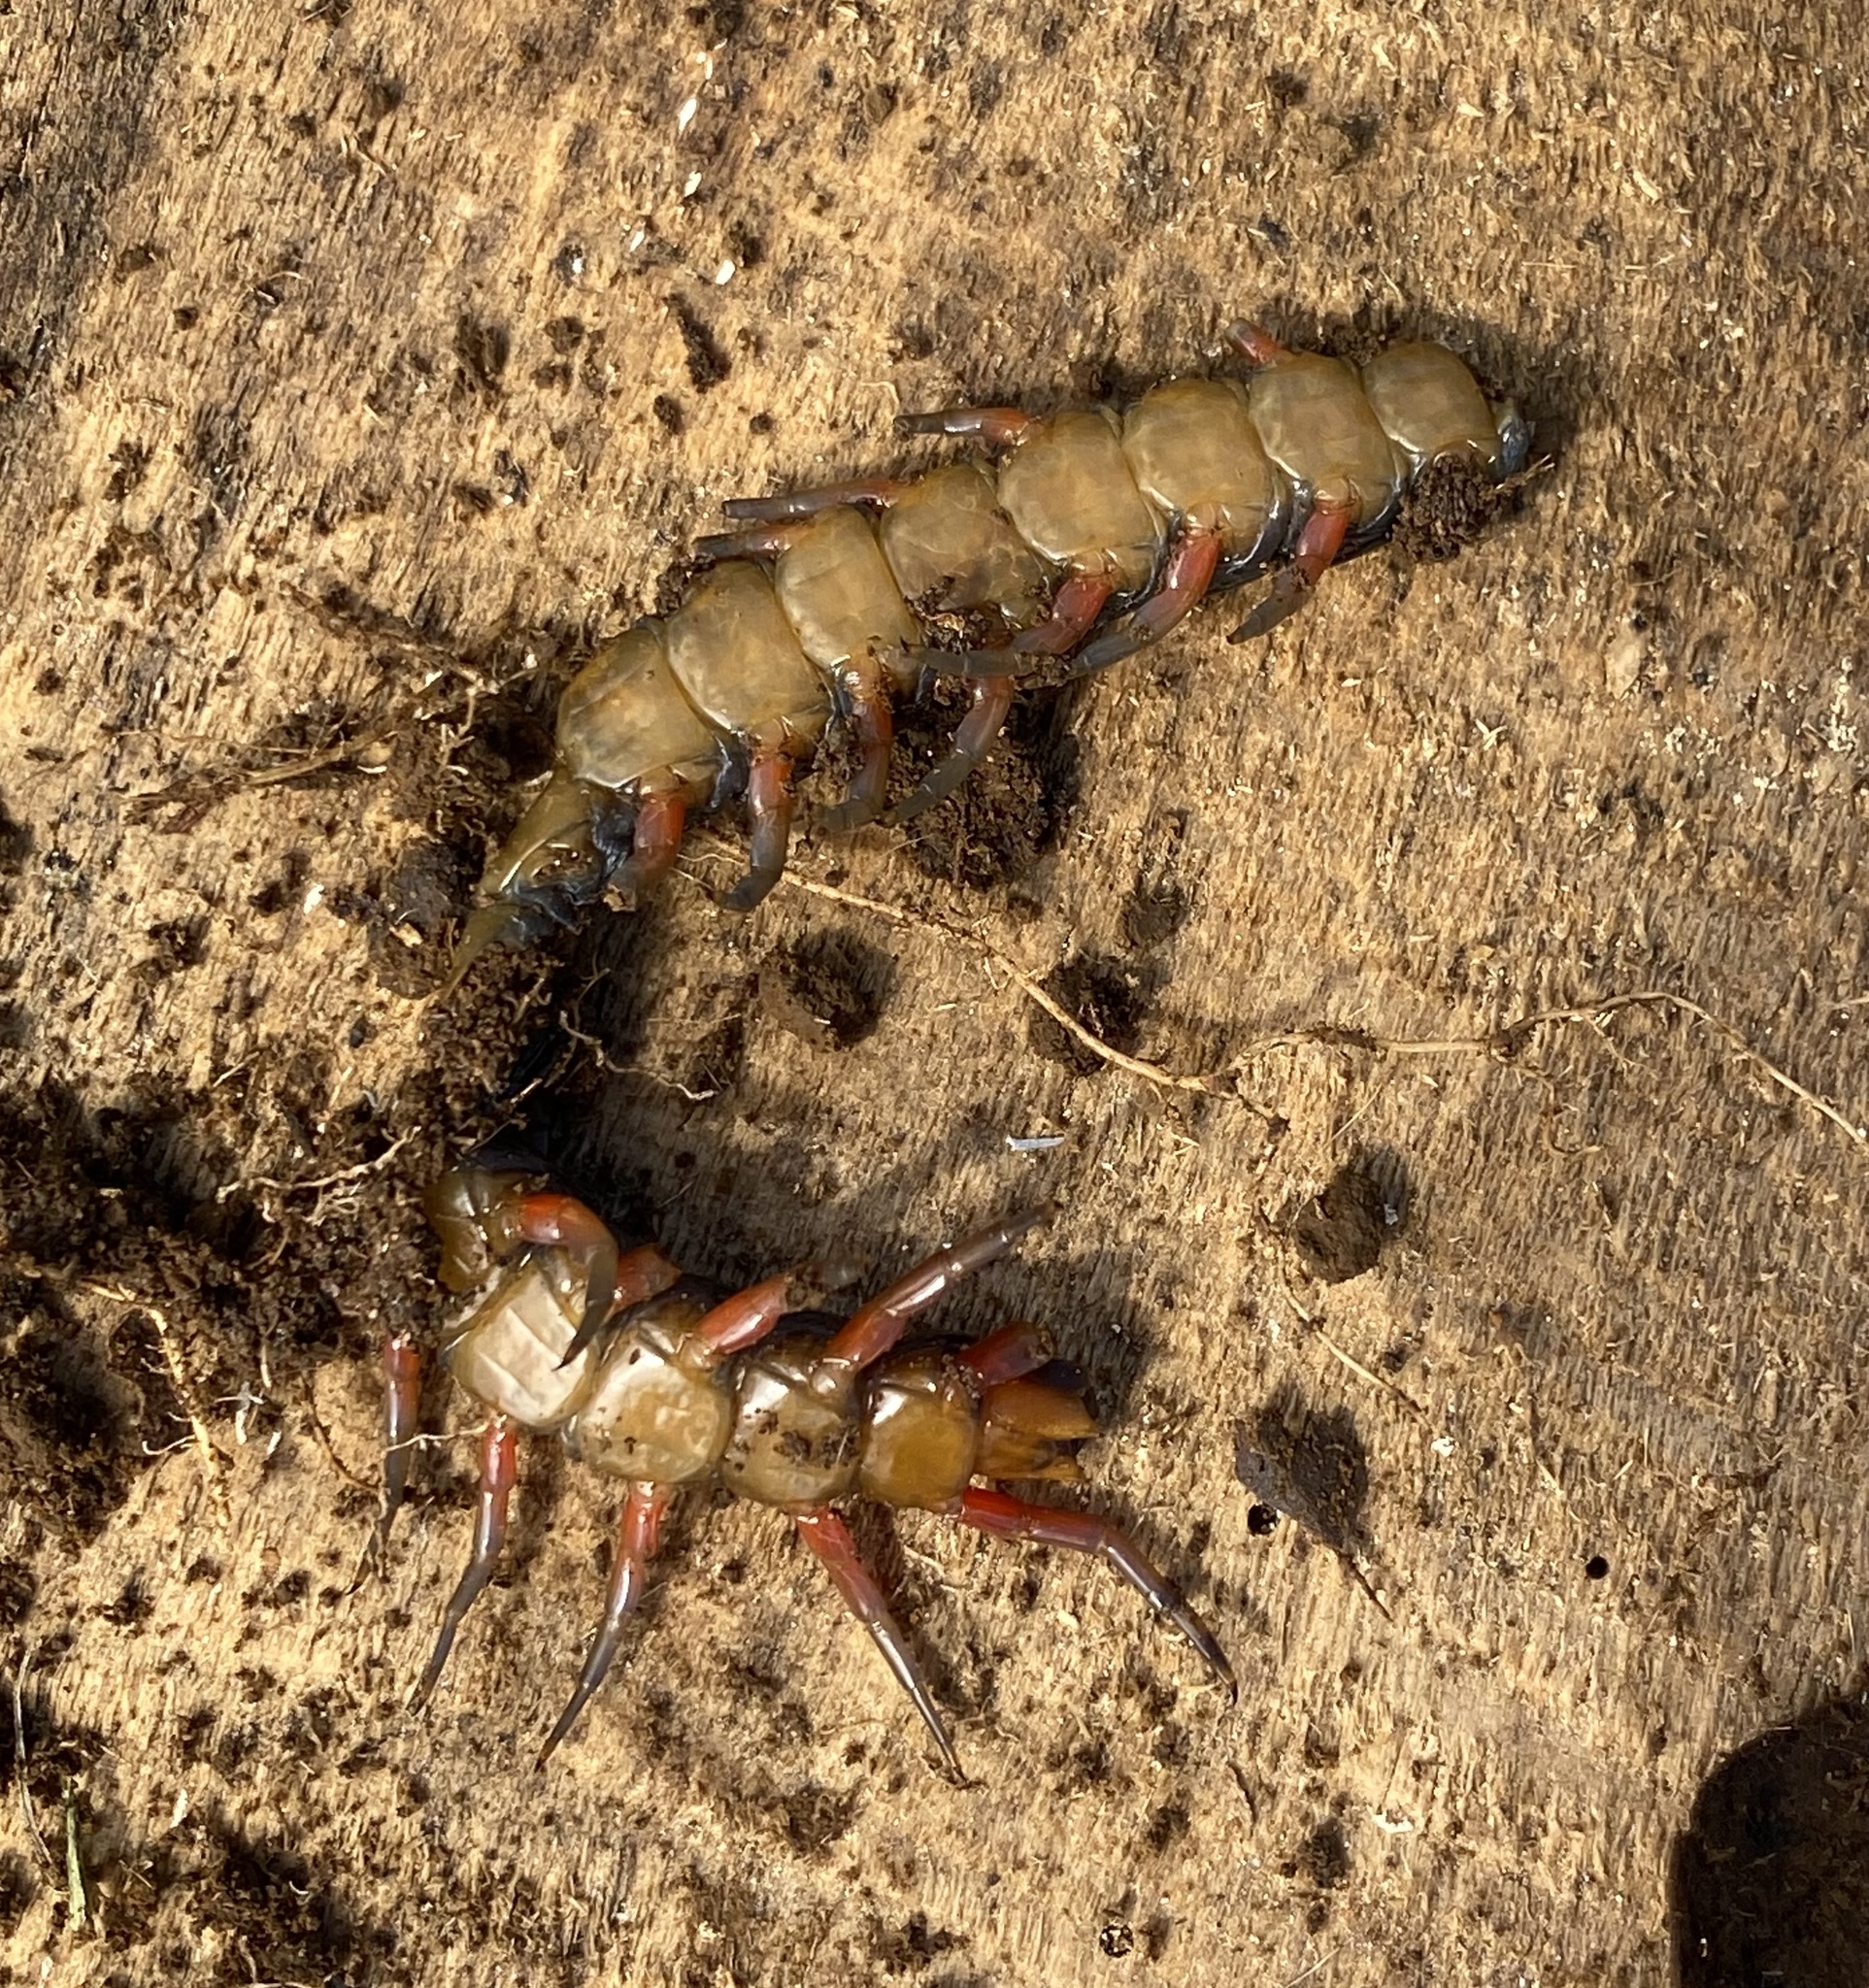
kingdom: Animalia
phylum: Arthropoda
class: Chilopoda
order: Scolopendromorpha
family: Scolopendridae
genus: Scolopendra
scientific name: Scolopendra subspinipes
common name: Centipede
